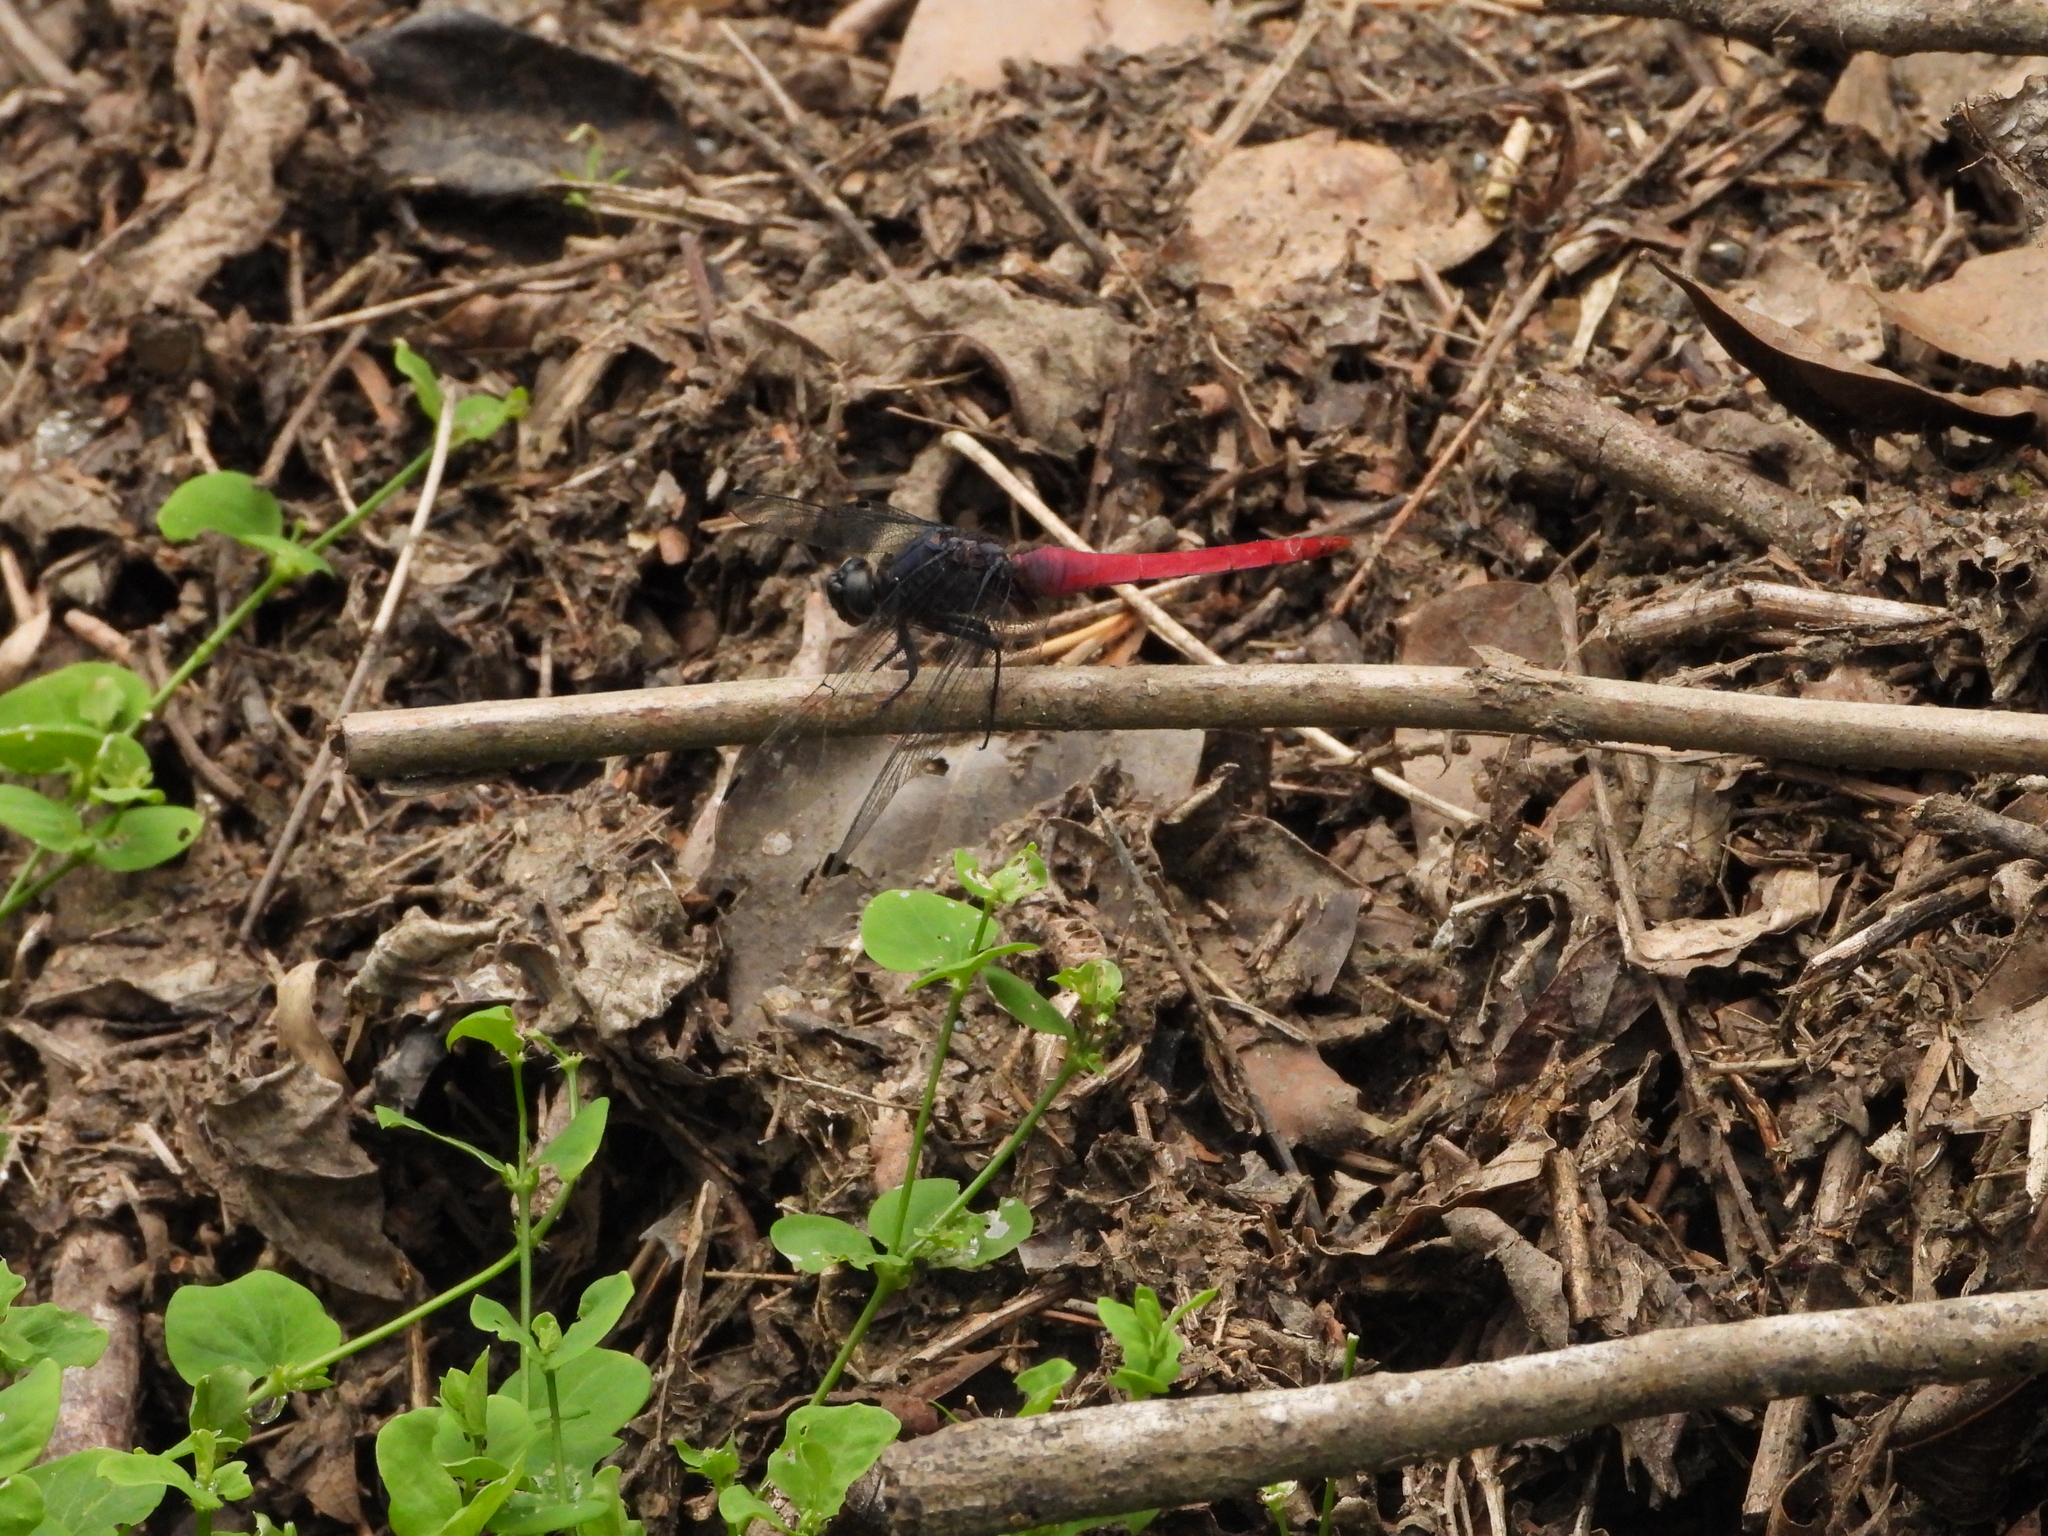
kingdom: Animalia
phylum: Arthropoda
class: Insecta
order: Odonata
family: Libellulidae
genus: Orthetrum
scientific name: Orthetrum pruinosum
